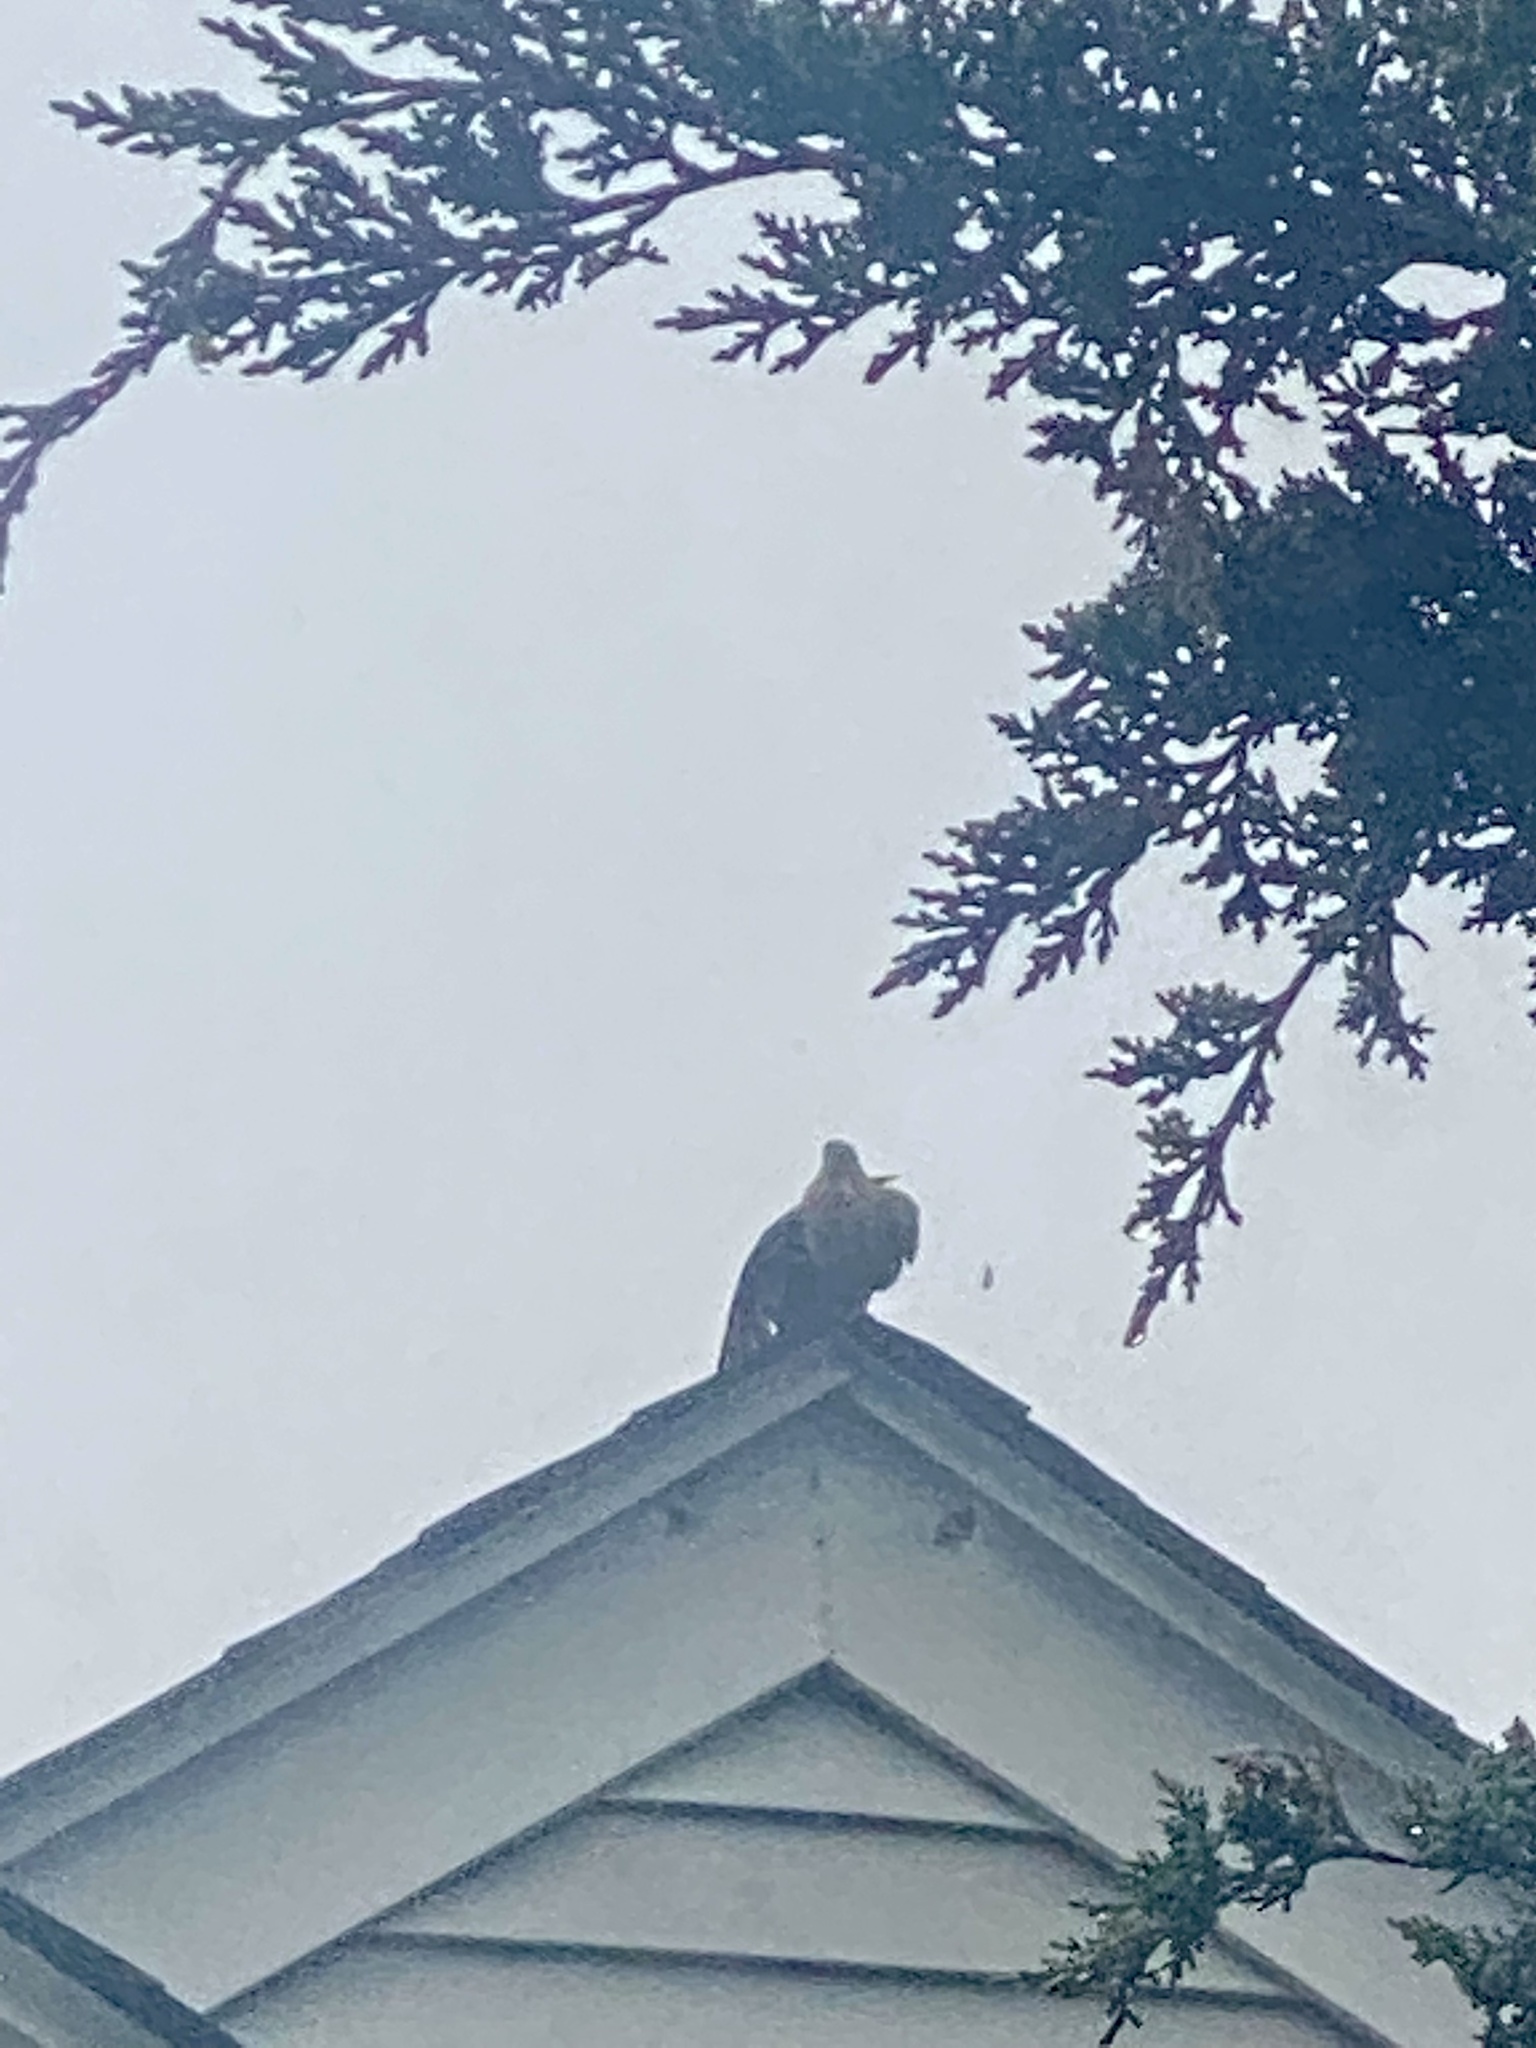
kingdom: Animalia
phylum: Chordata
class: Aves
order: Columbiformes
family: Columbidae
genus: Zenaida
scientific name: Zenaida macroura
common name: Mourning dove
